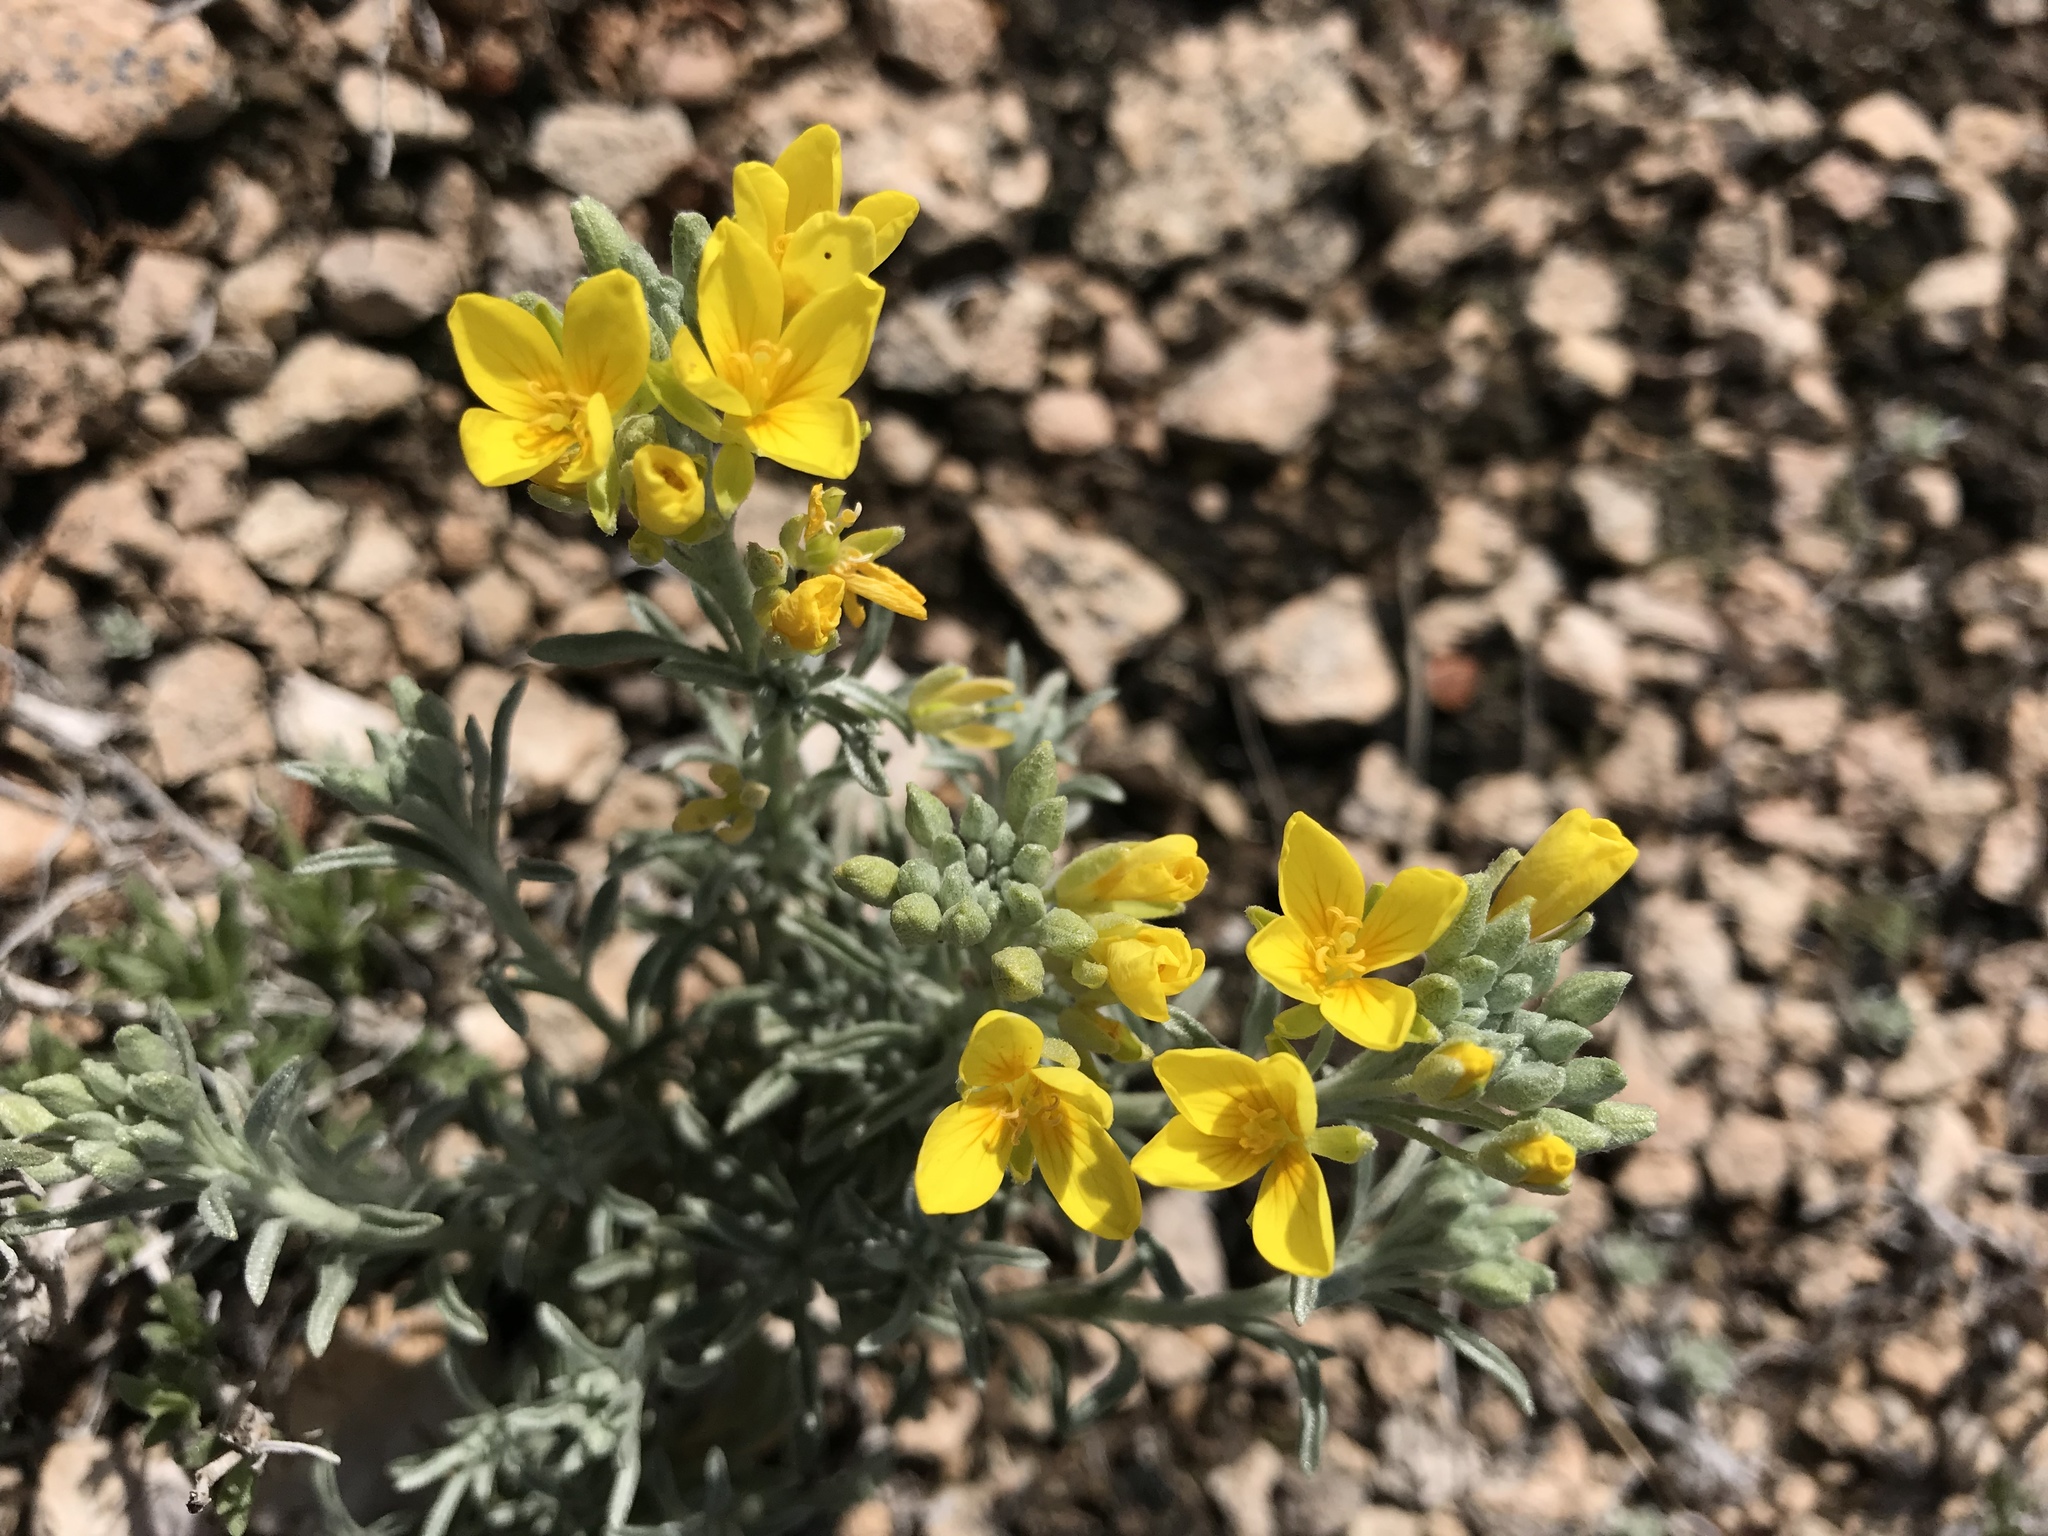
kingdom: Plantae
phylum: Tracheophyta
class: Magnoliopsida
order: Brassicales
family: Brassicaceae
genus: Physaria
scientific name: Physaria fendleri
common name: Fendler's bladderpod
